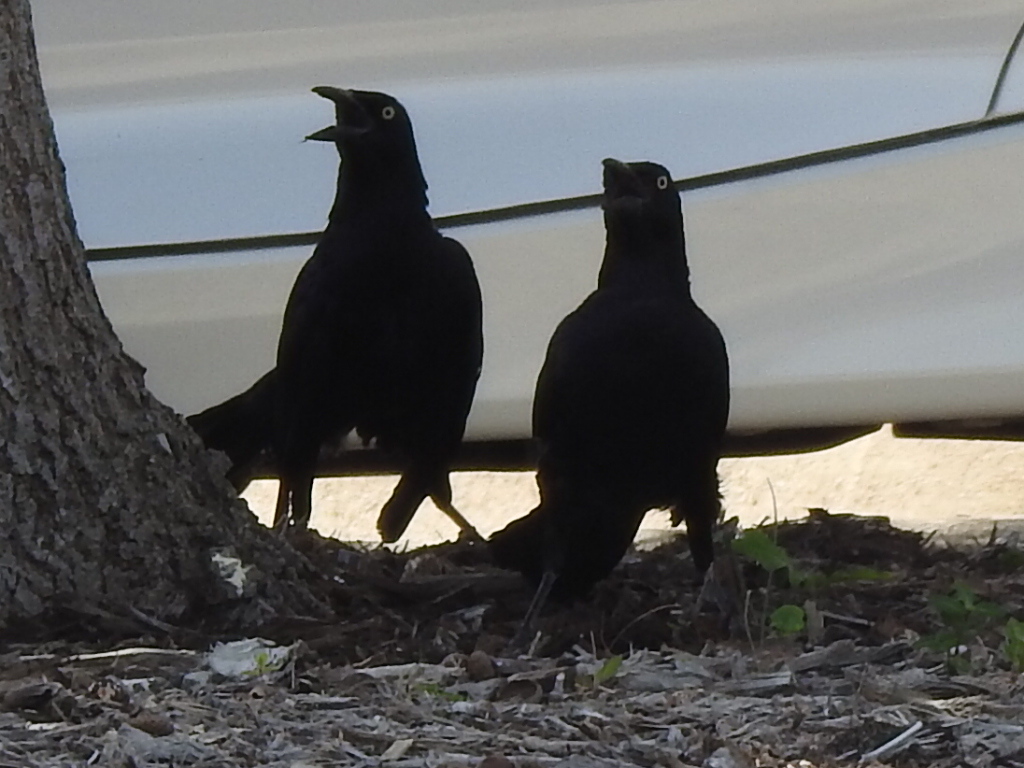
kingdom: Animalia
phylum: Chordata
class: Aves
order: Passeriformes
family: Icteridae
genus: Quiscalus
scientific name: Quiscalus mexicanus
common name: Great-tailed grackle
